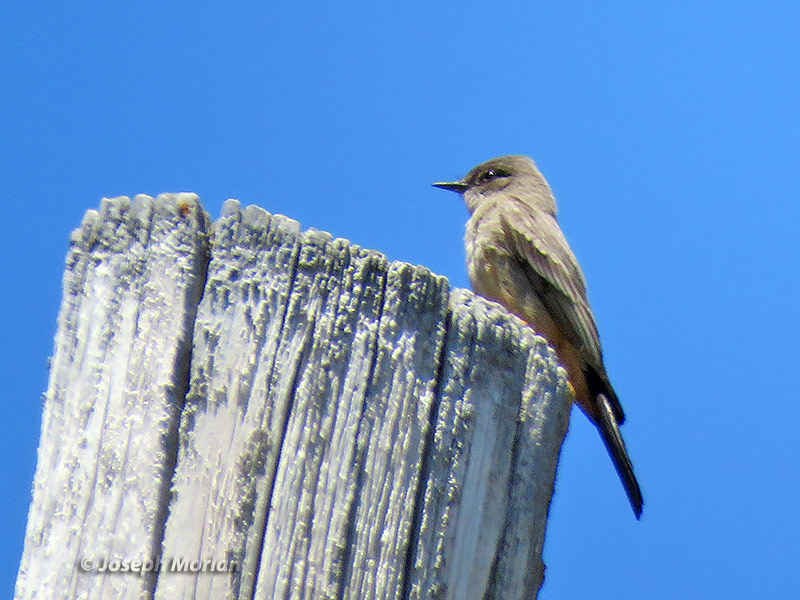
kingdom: Animalia
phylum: Chordata
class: Aves
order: Passeriformes
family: Tyrannidae
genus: Sayornis
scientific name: Sayornis saya
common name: Say's phoebe
